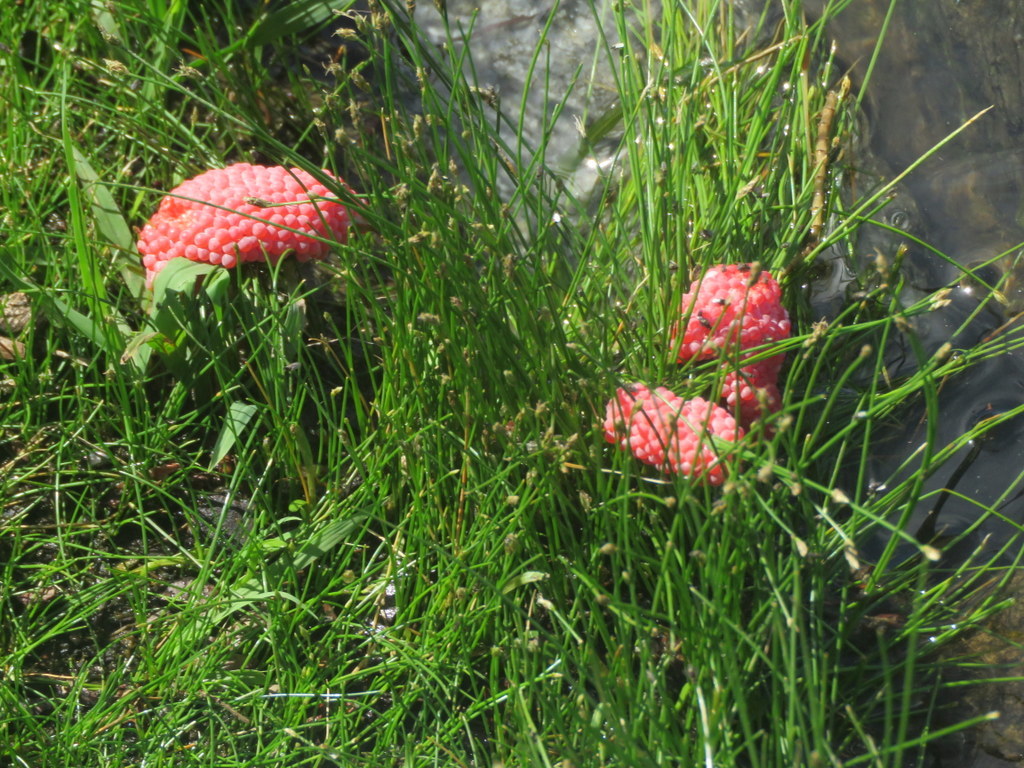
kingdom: Animalia
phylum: Mollusca
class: Gastropoda
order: Architaenioglossa
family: Ampullariidae
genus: Pomacea
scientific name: Pomacea canaliculata
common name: Channeled applesnail
